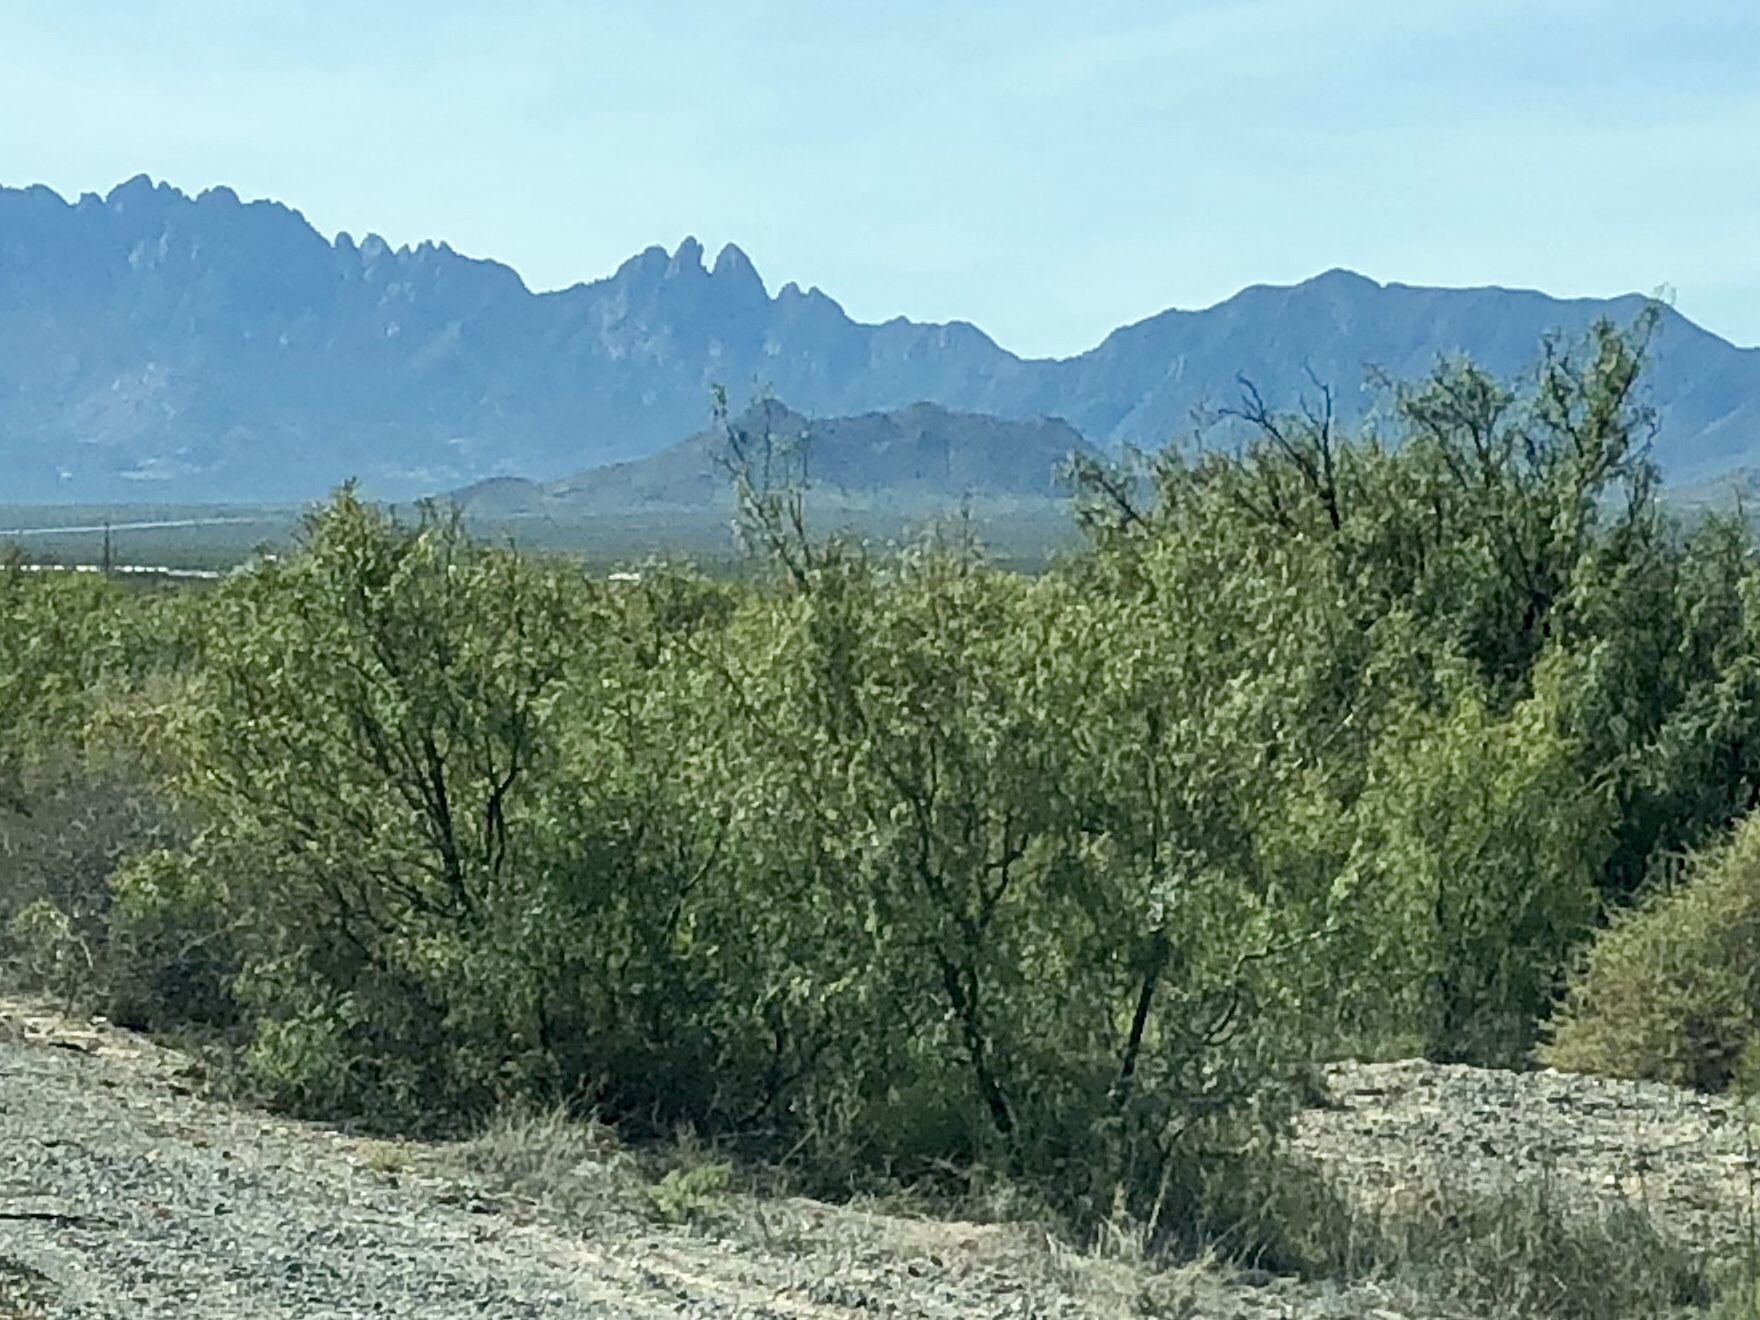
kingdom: Plantae
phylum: Tracheophyta
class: Magnoliopsida
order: Fabales
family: Fabaceae
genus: Prosopis
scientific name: Prosopis glandulosa
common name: Honey mesquite
